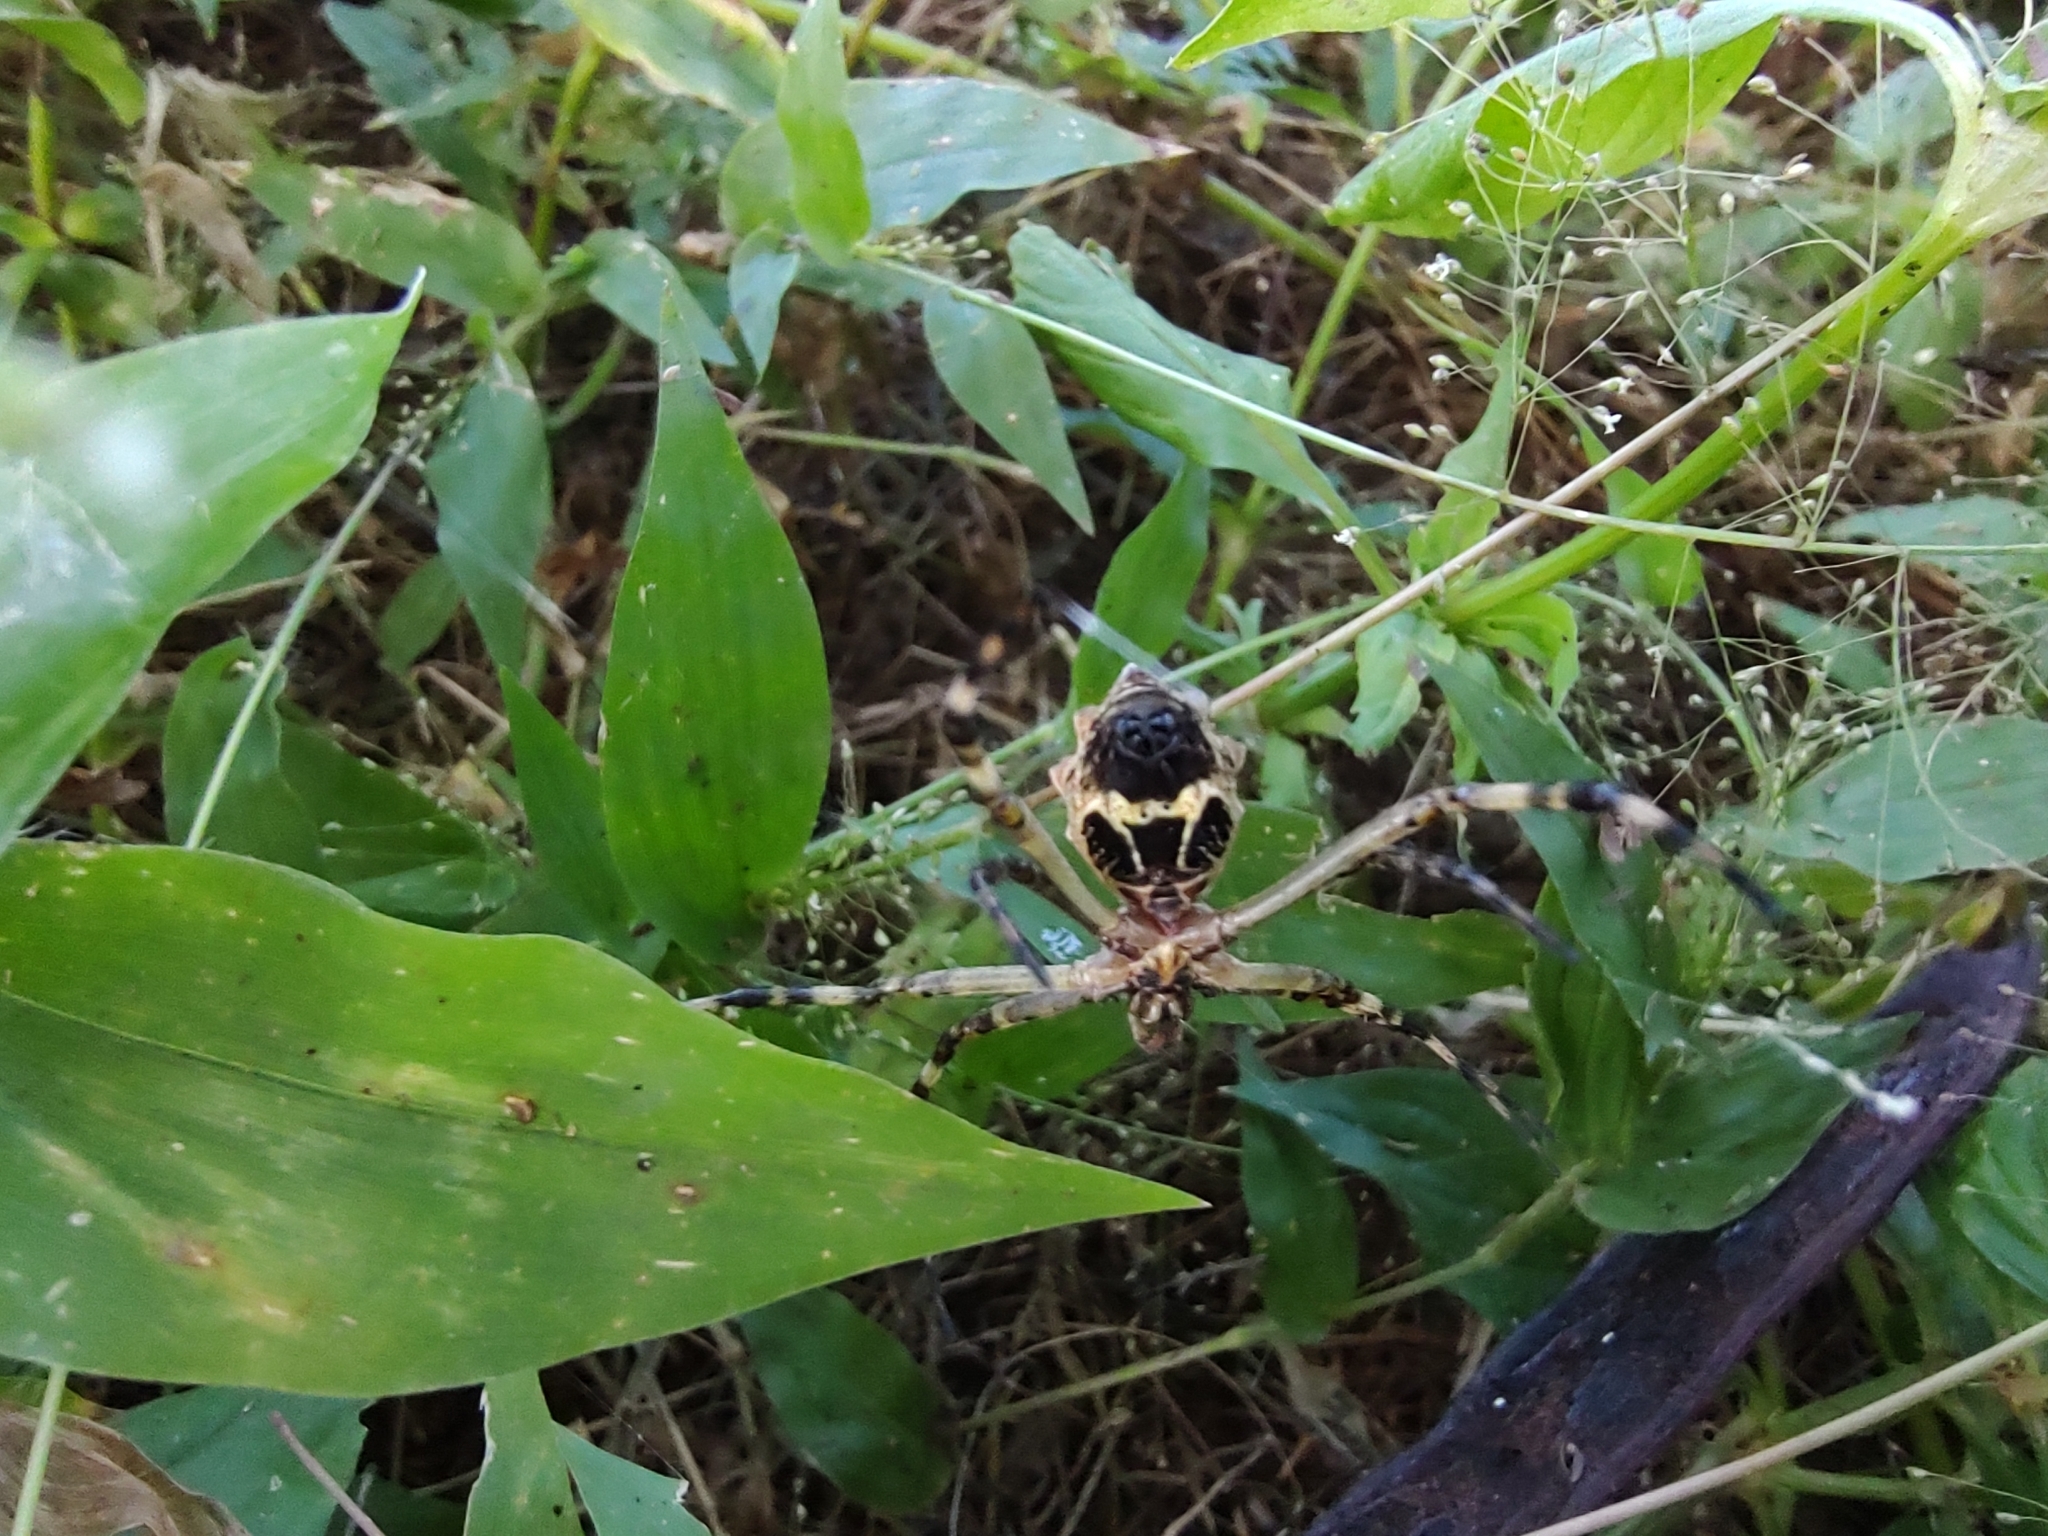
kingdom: Animalia
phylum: Arthropoda
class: Arachnida
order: Araneae
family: Araneidae
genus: Argiope
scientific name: Argiope argentata
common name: Orb weavers
